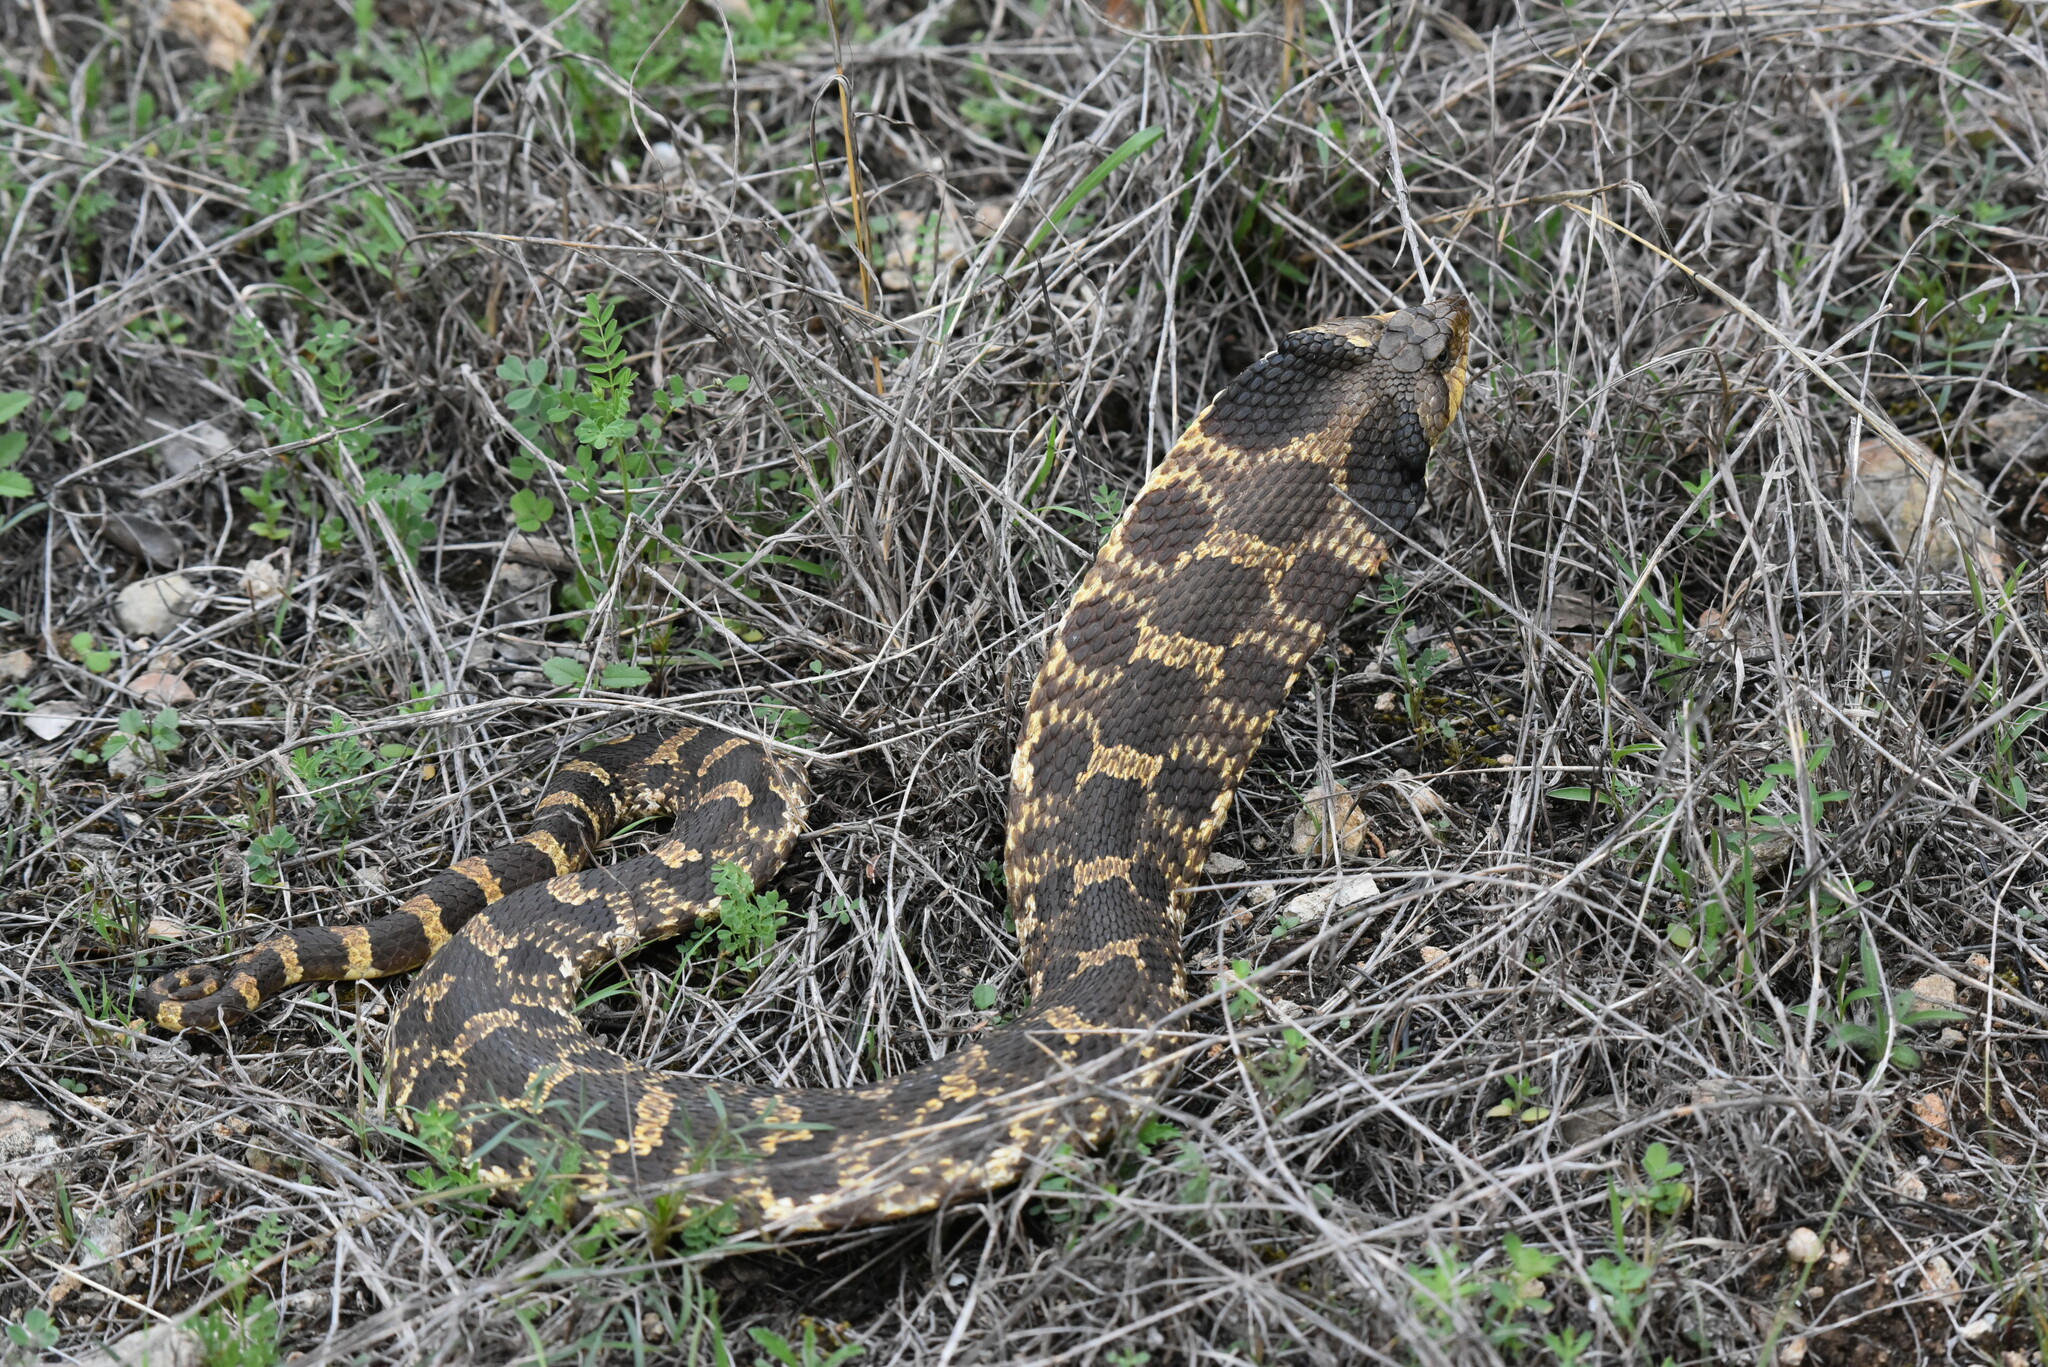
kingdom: Animalia
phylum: Chordata
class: Squamata
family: Colubridae
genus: Heterodon
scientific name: Heterodon platirhinos
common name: Eastern hognose snake
